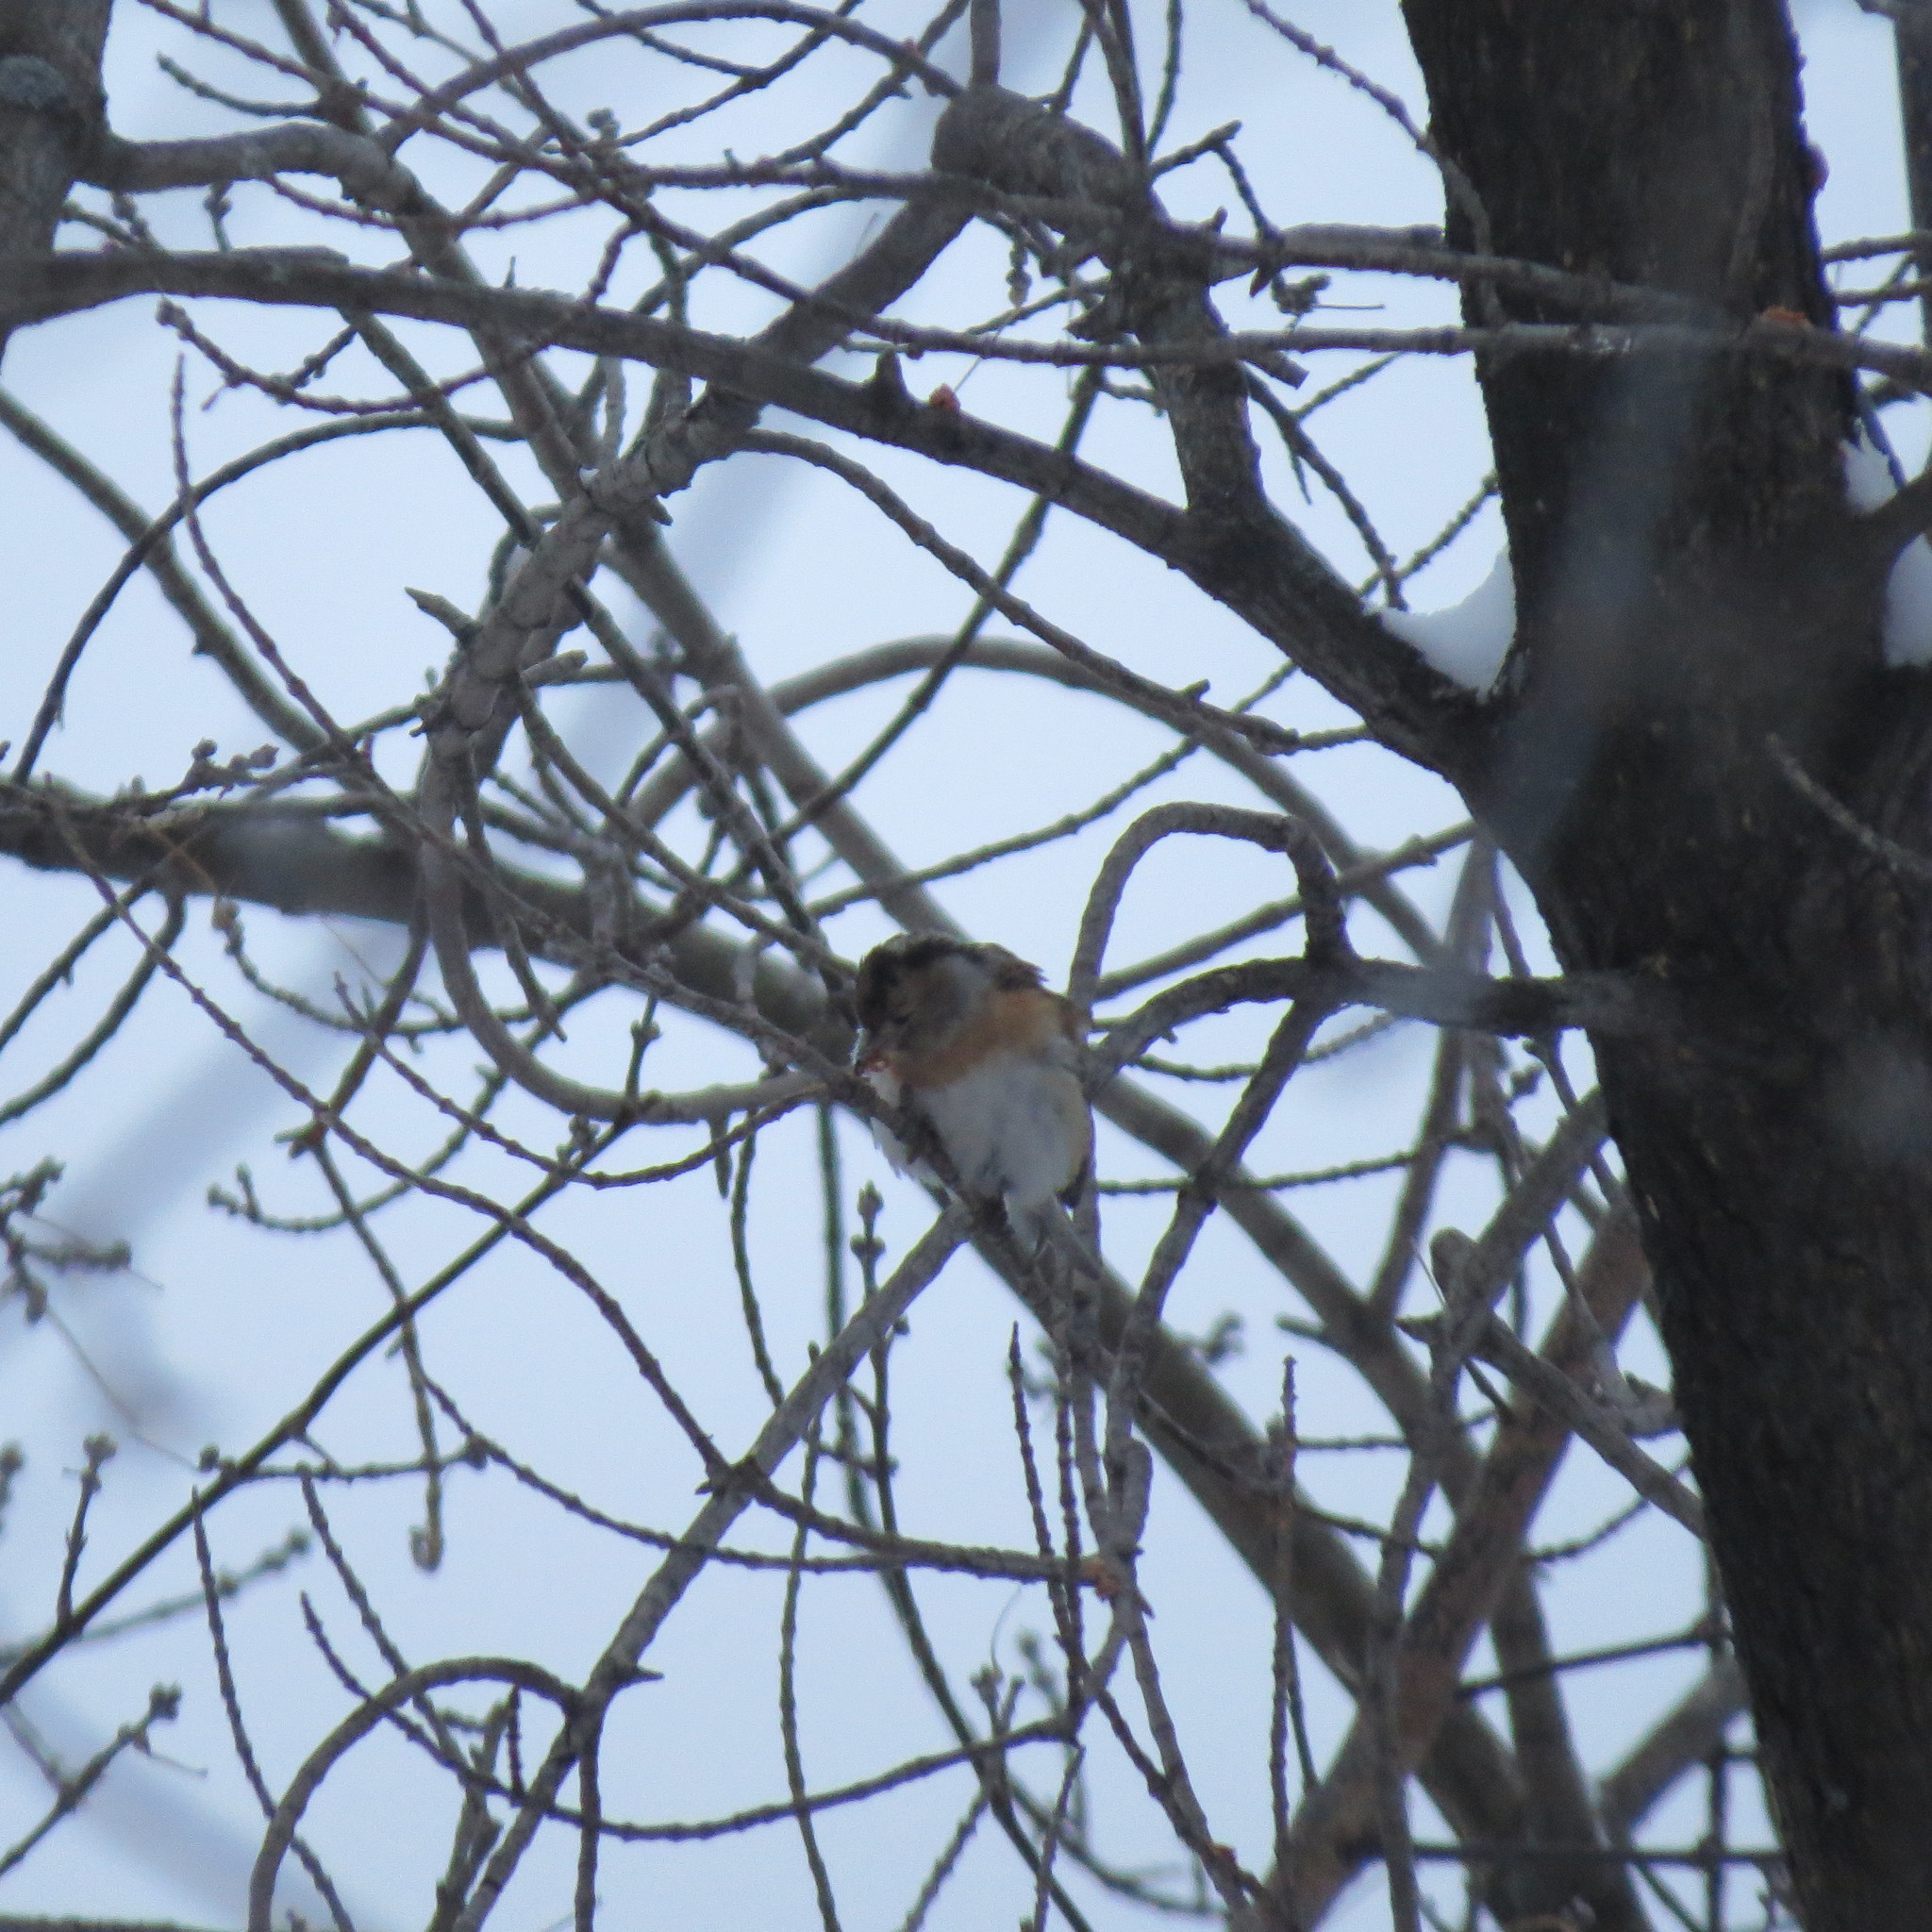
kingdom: Animalia
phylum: Chordata
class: Aves
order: Passeriformes
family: Fringillidae
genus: Fringilla
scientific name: Fringilla montifringilla
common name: Brambling
